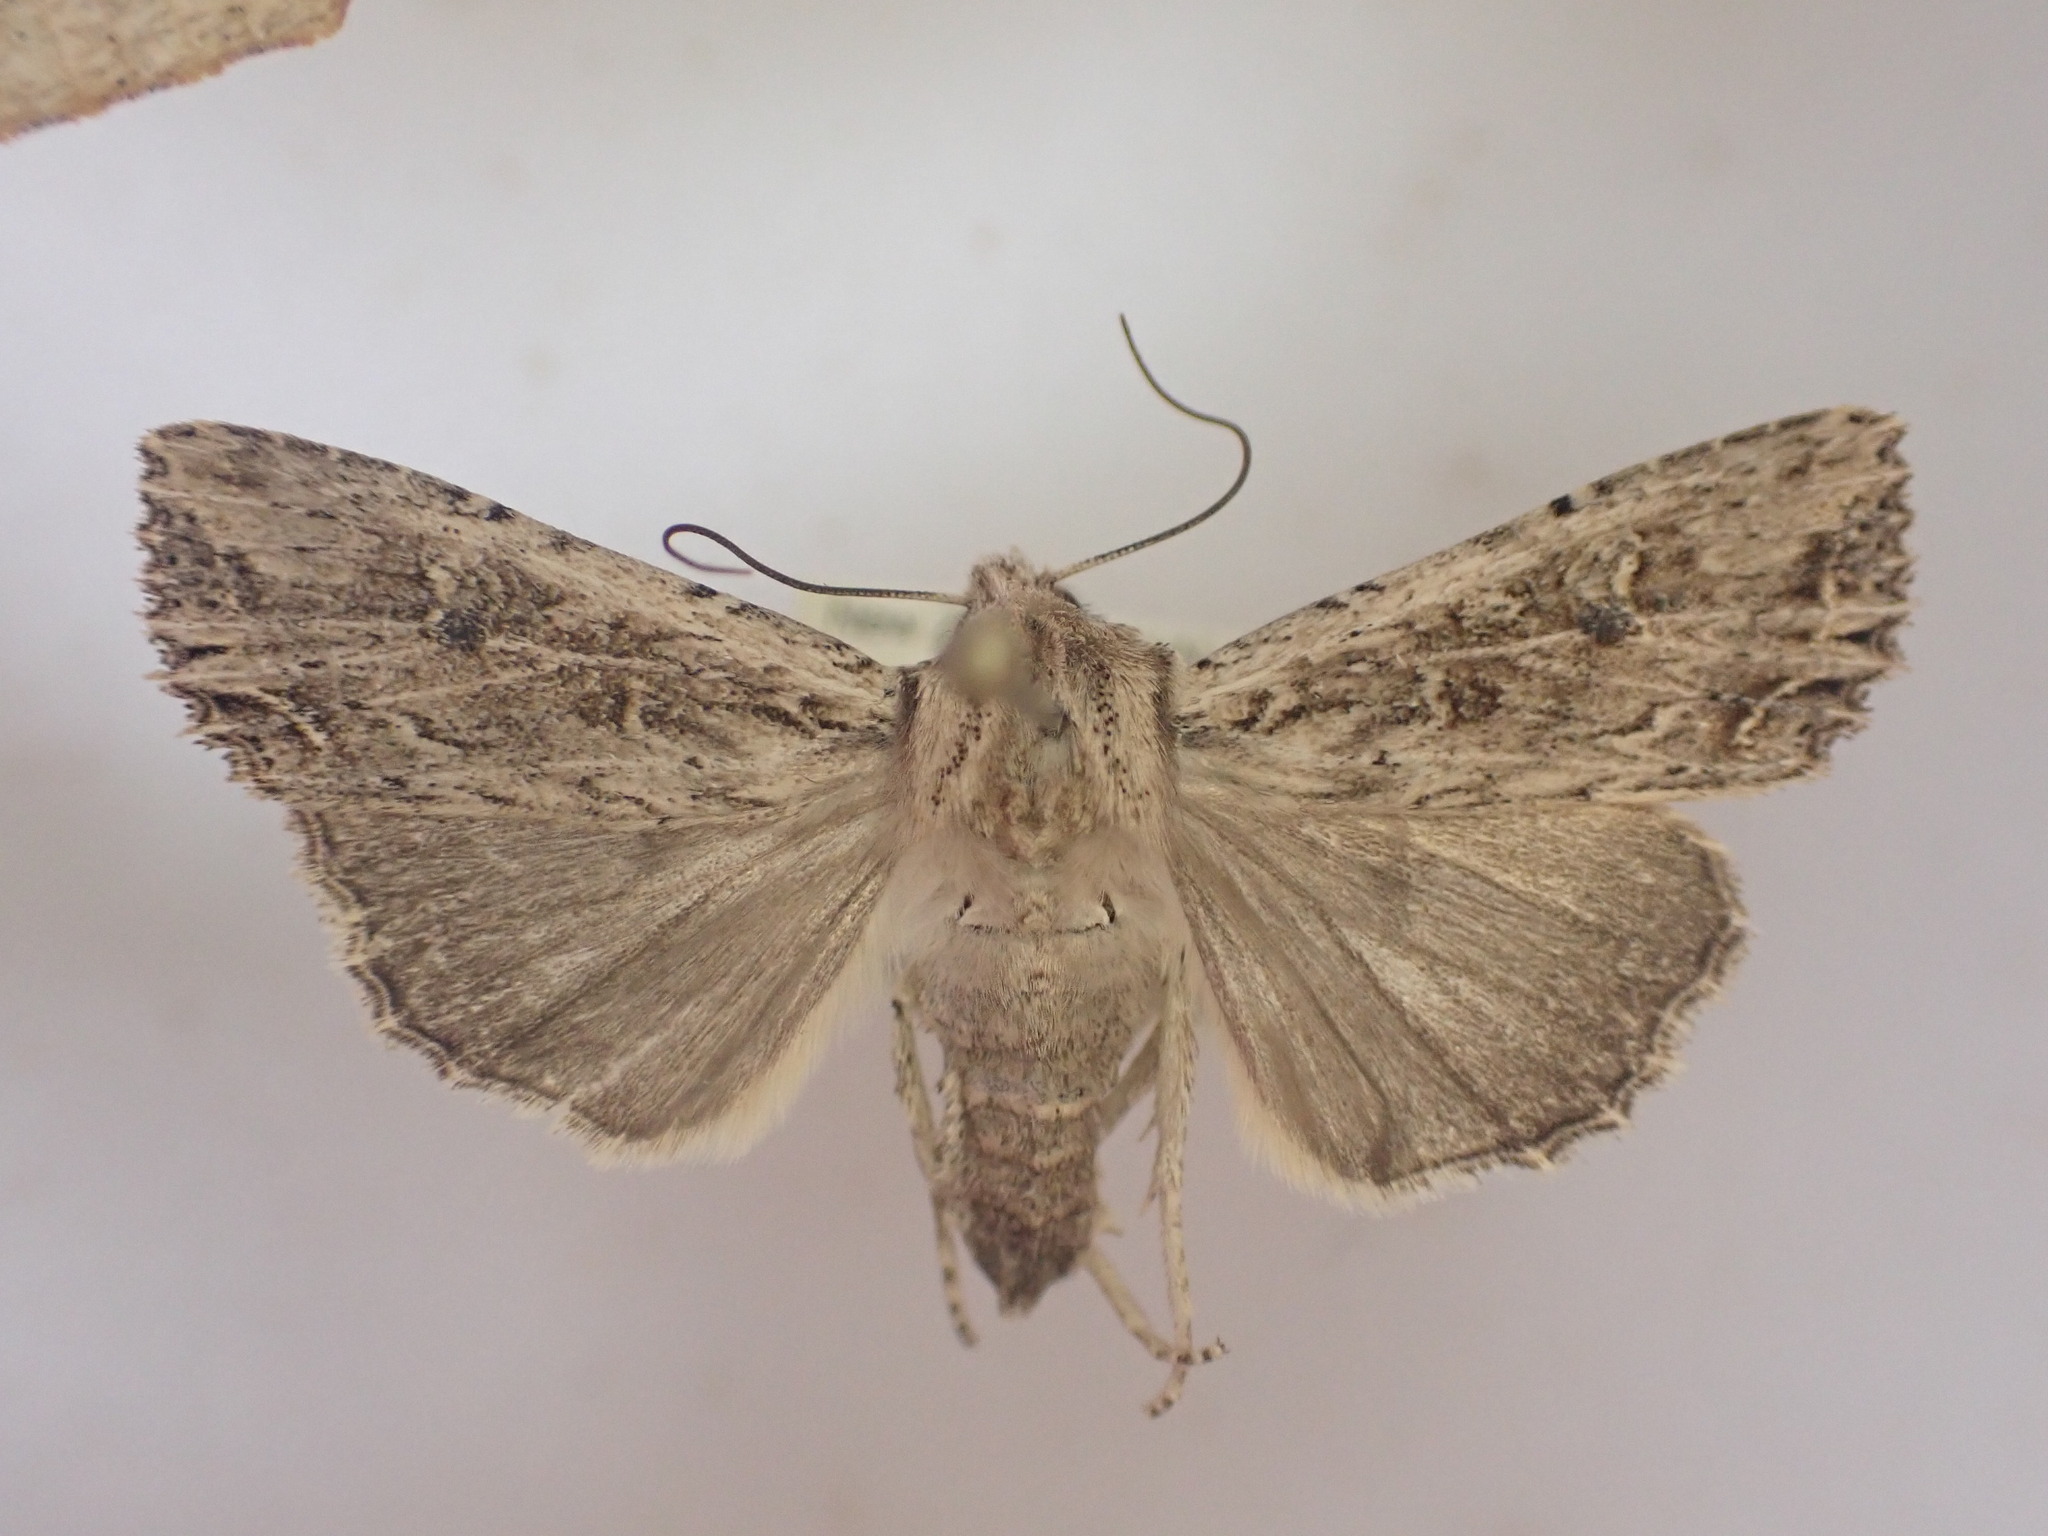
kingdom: Animalia
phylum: Arthropoda
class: Insecta
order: Lepidoptera
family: Noctuidae
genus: Ichneutica
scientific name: Ichneutica lignana
